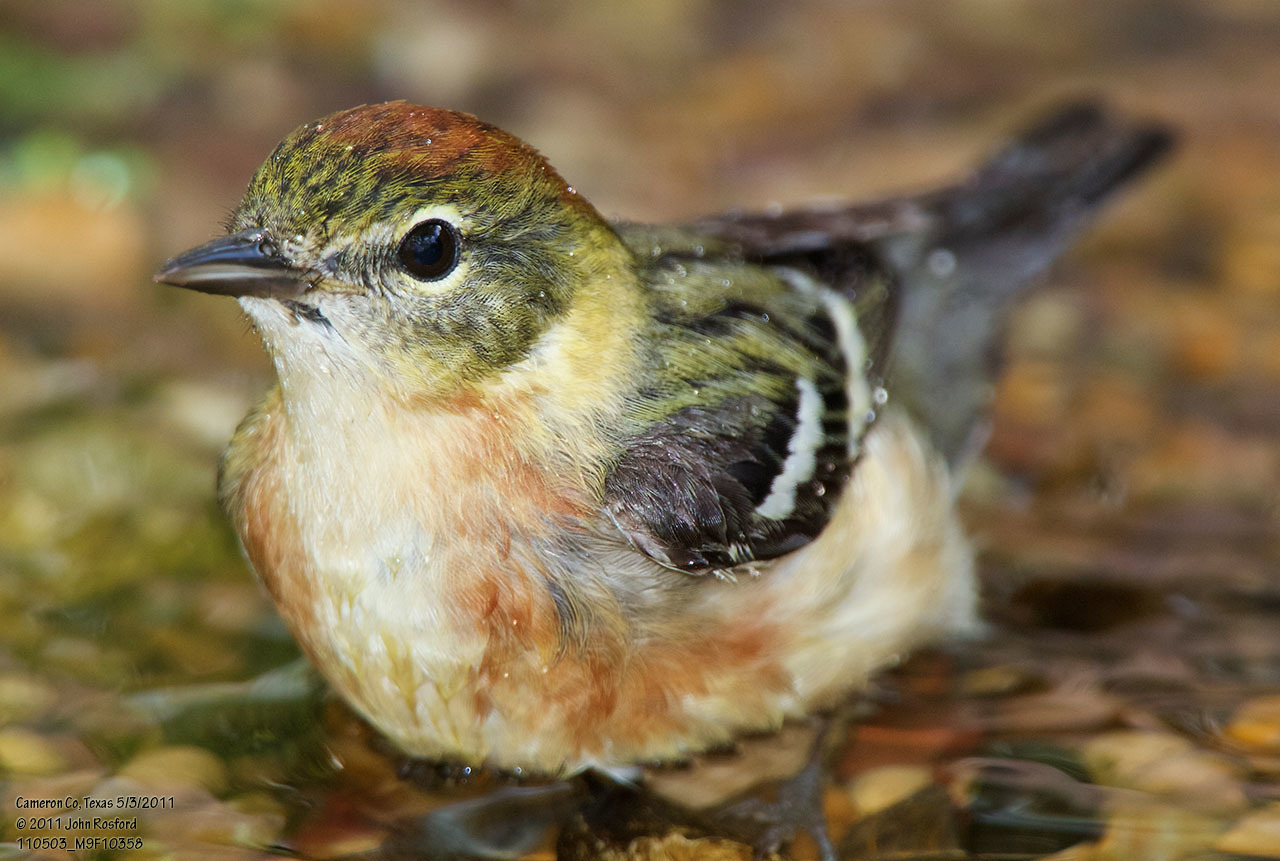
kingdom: Animalia
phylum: Chordata
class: Aves
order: Passeriformes
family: Parulidae
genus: Setophaga
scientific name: Setophaga castanea
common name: Bay-breasted warbler
